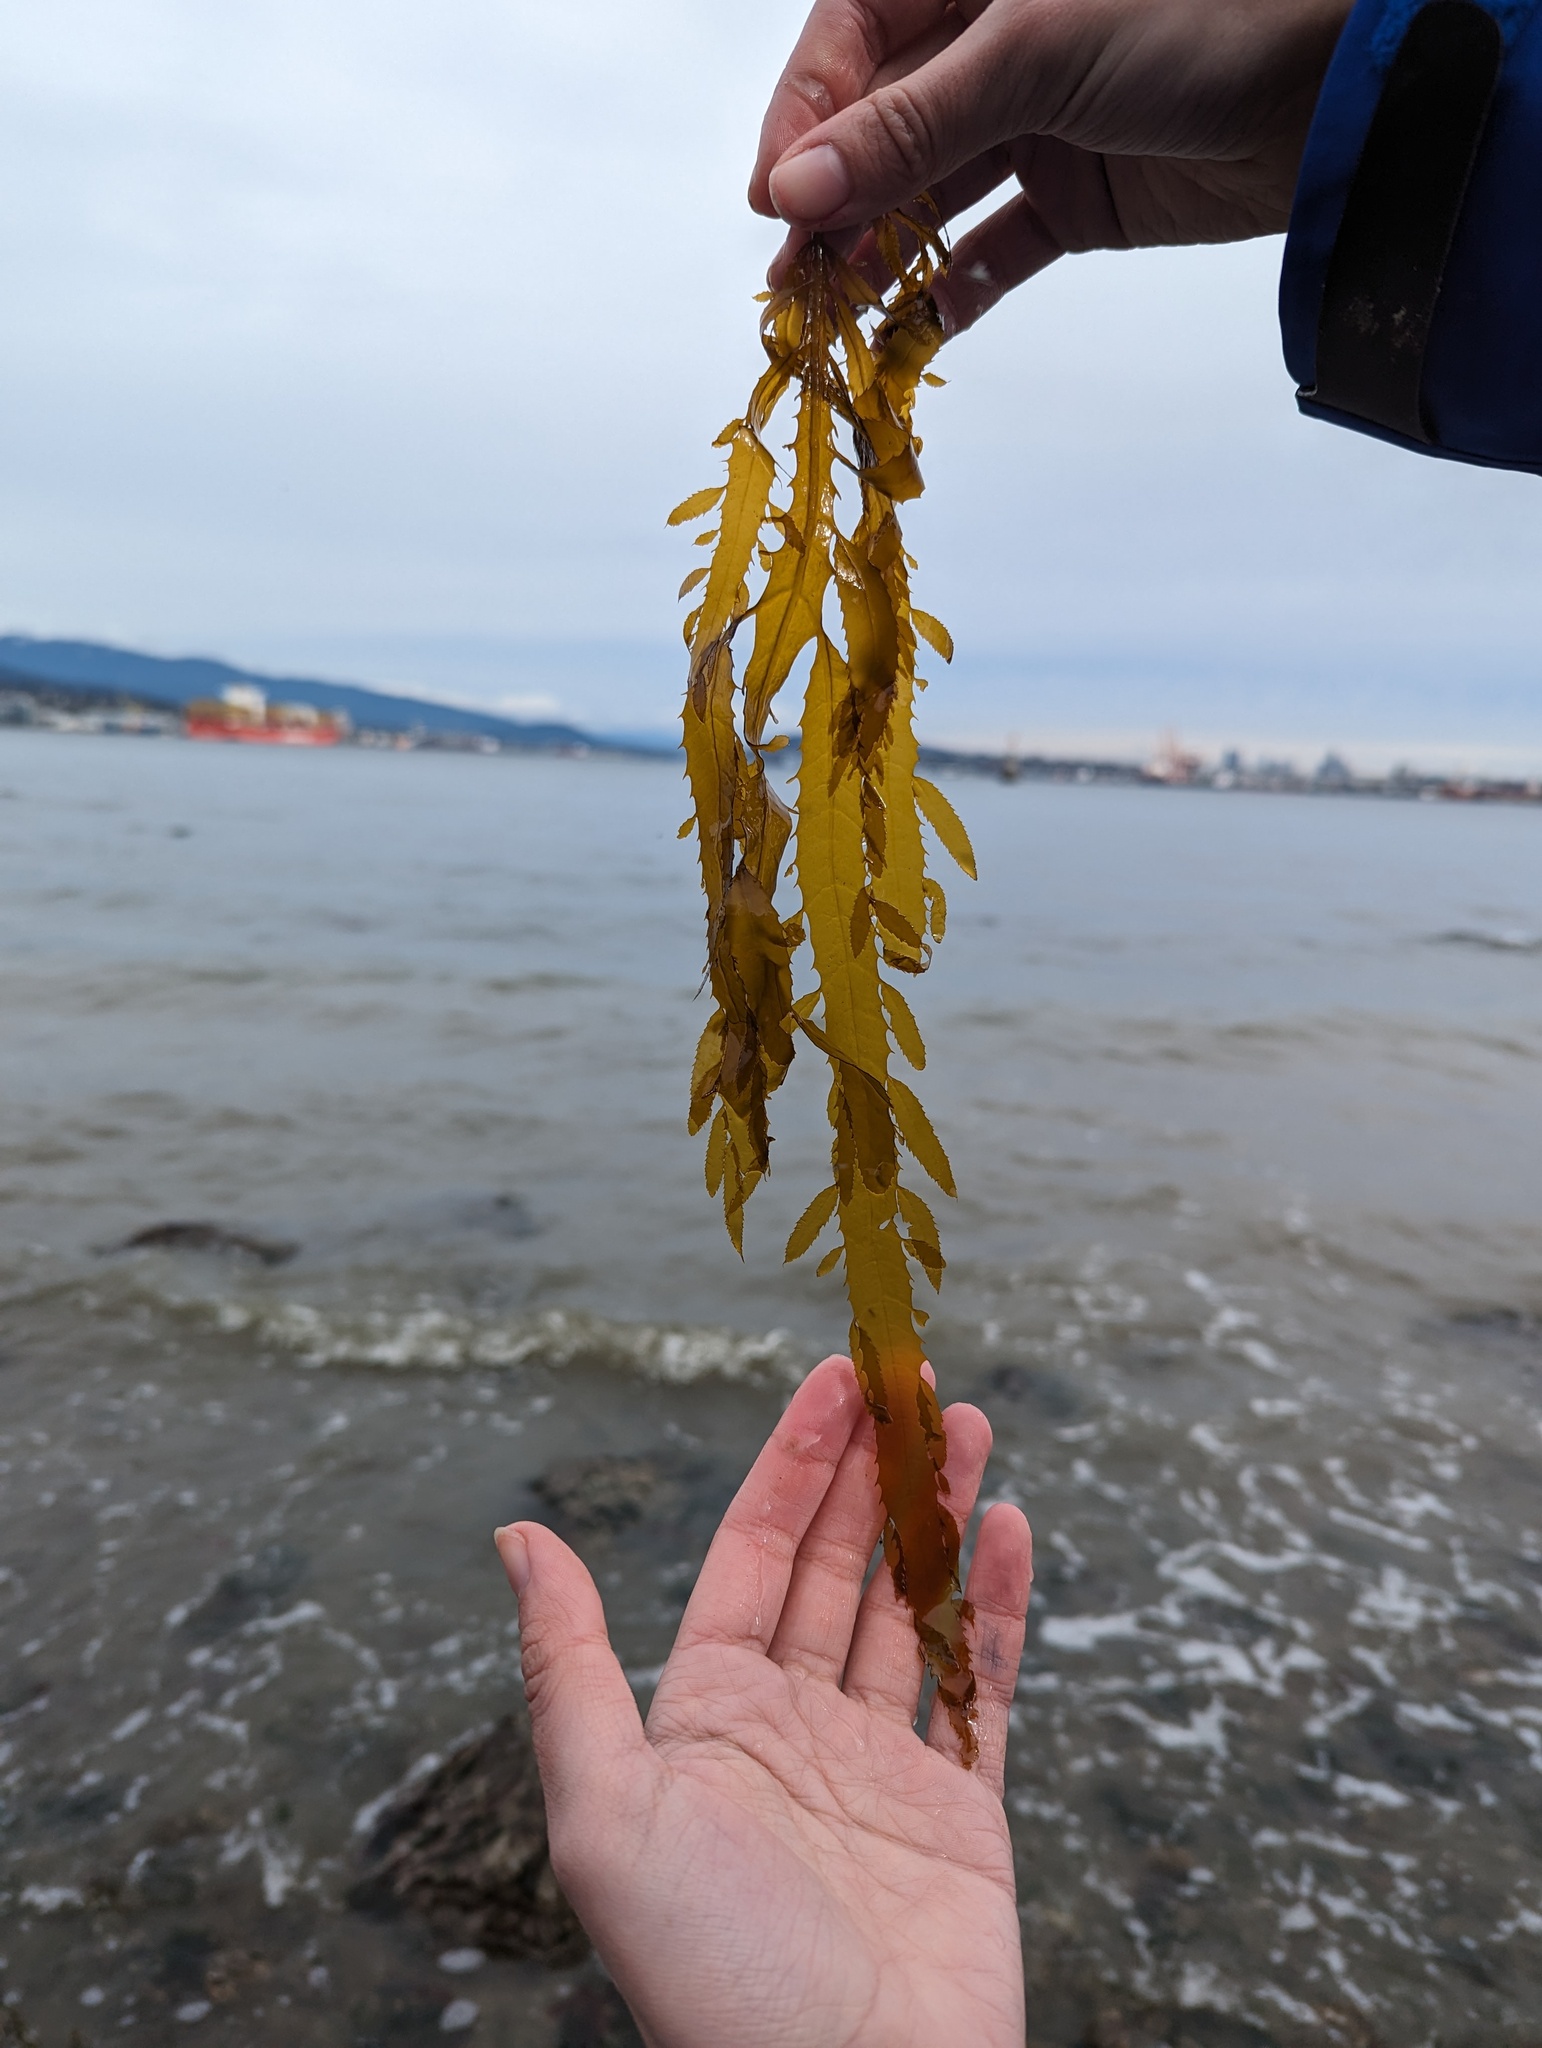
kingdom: Chromista
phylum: Ochrophyta
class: Phaeophyceae
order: Desmarestiales
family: Desmarestiaceae
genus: Desmarestia
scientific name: Desmarestia ligulata
